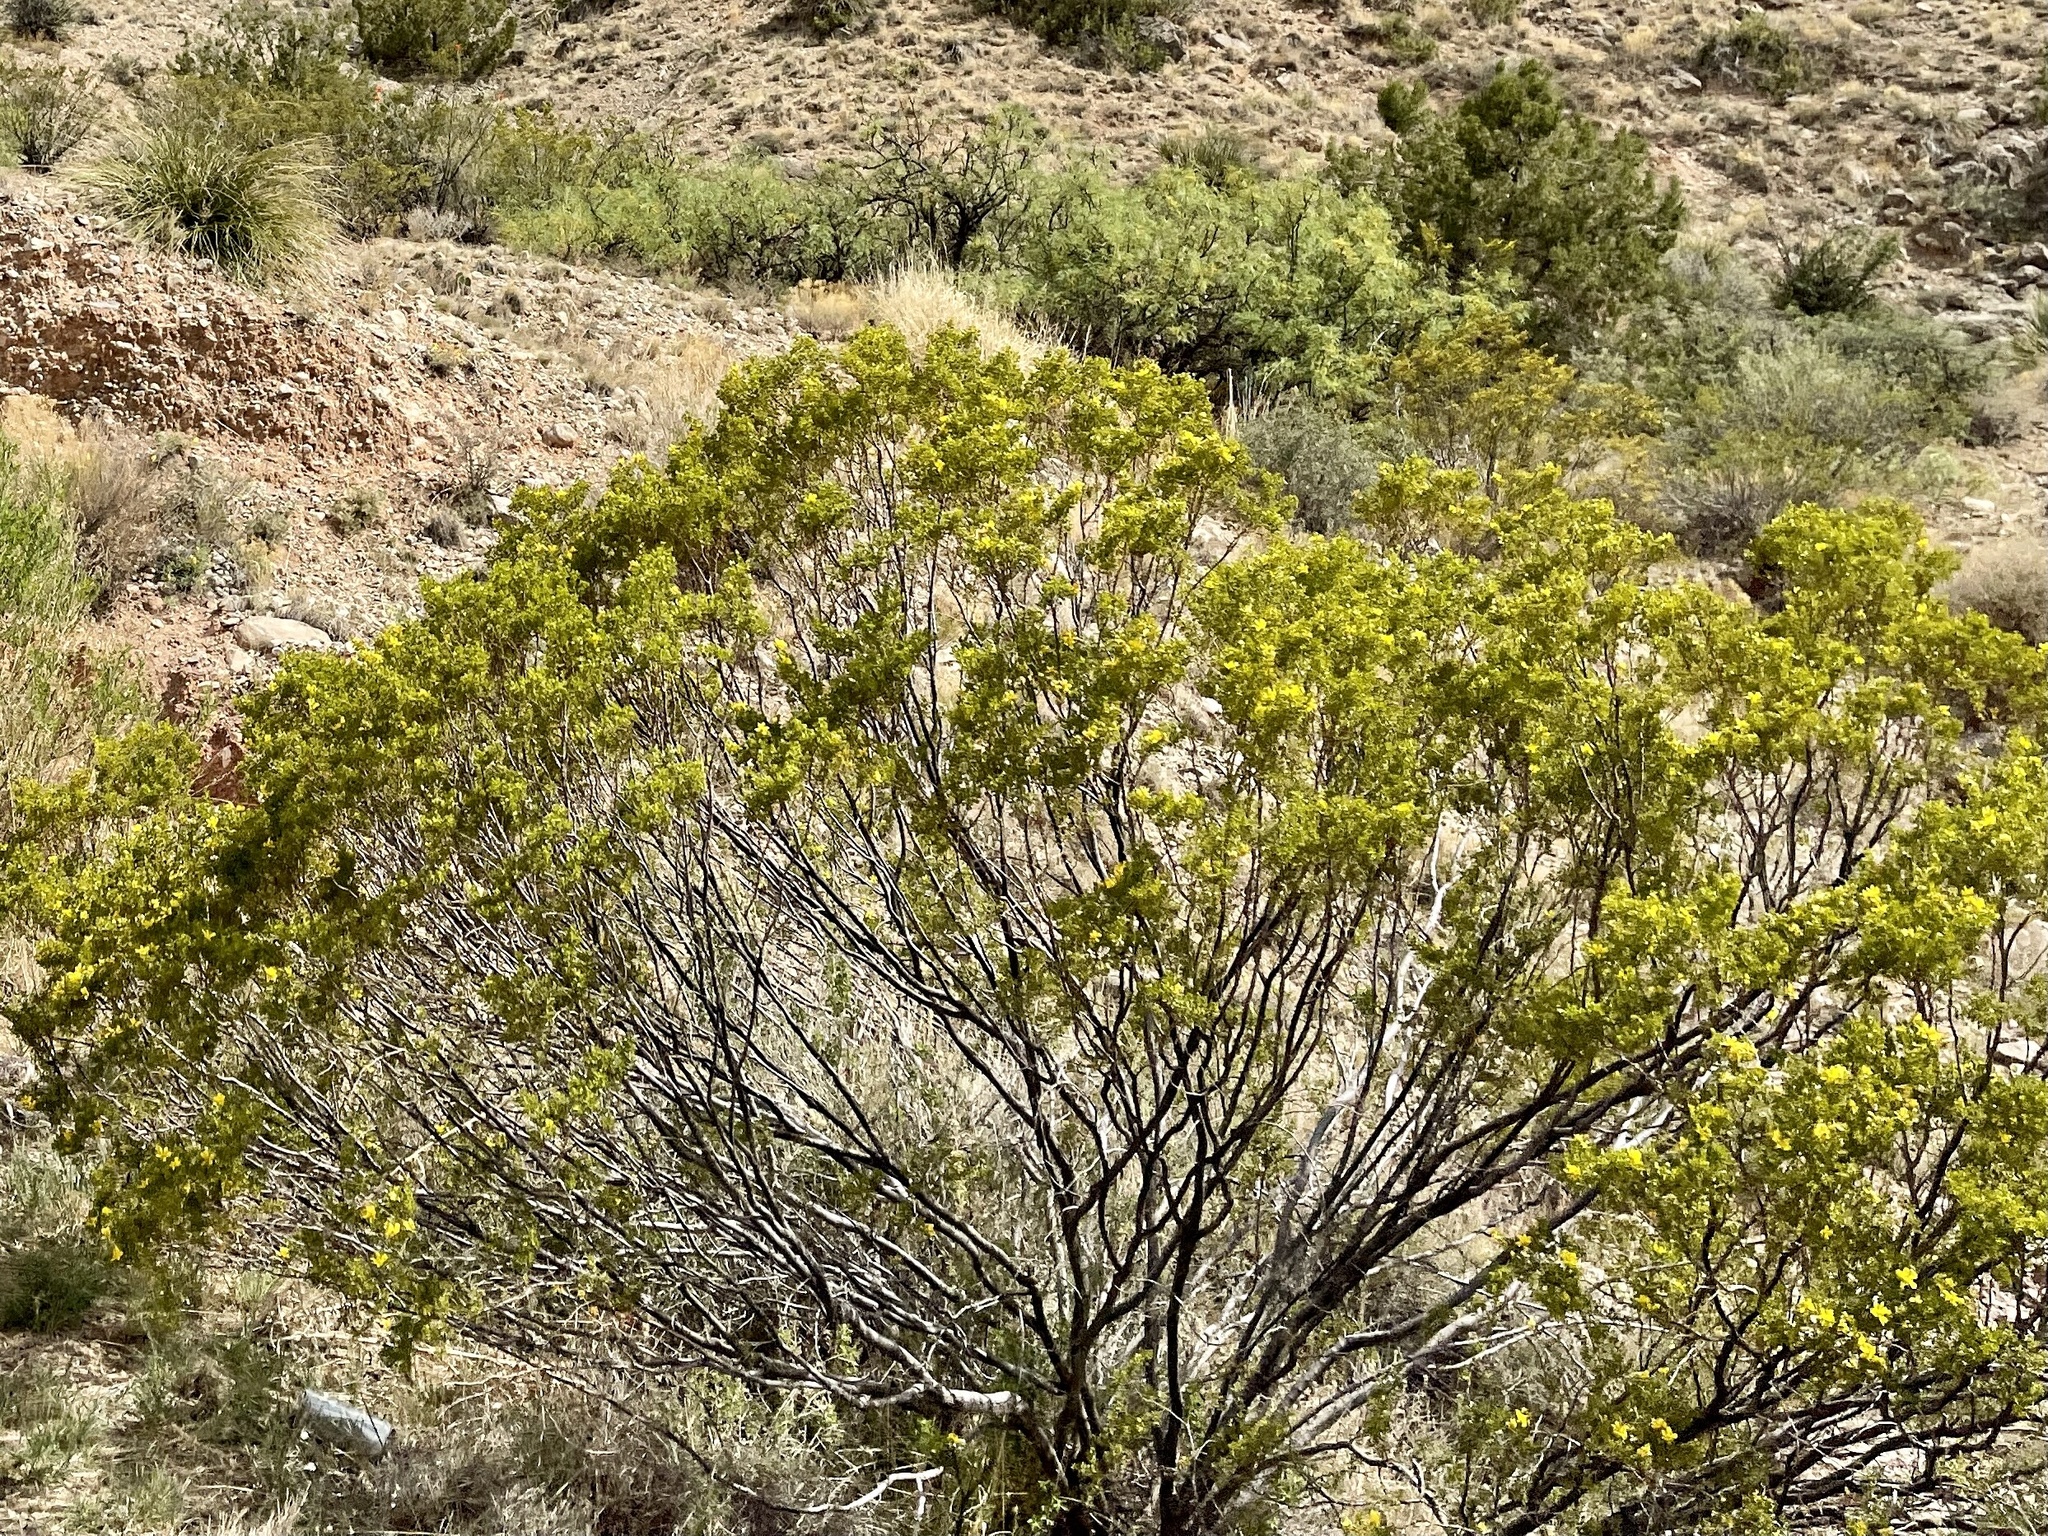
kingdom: Plantae
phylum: Tracheophyta
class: Magnoliopsida
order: Zygophyllales
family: Zygophyllaceae
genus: Larrea
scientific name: Larrea tridentata
